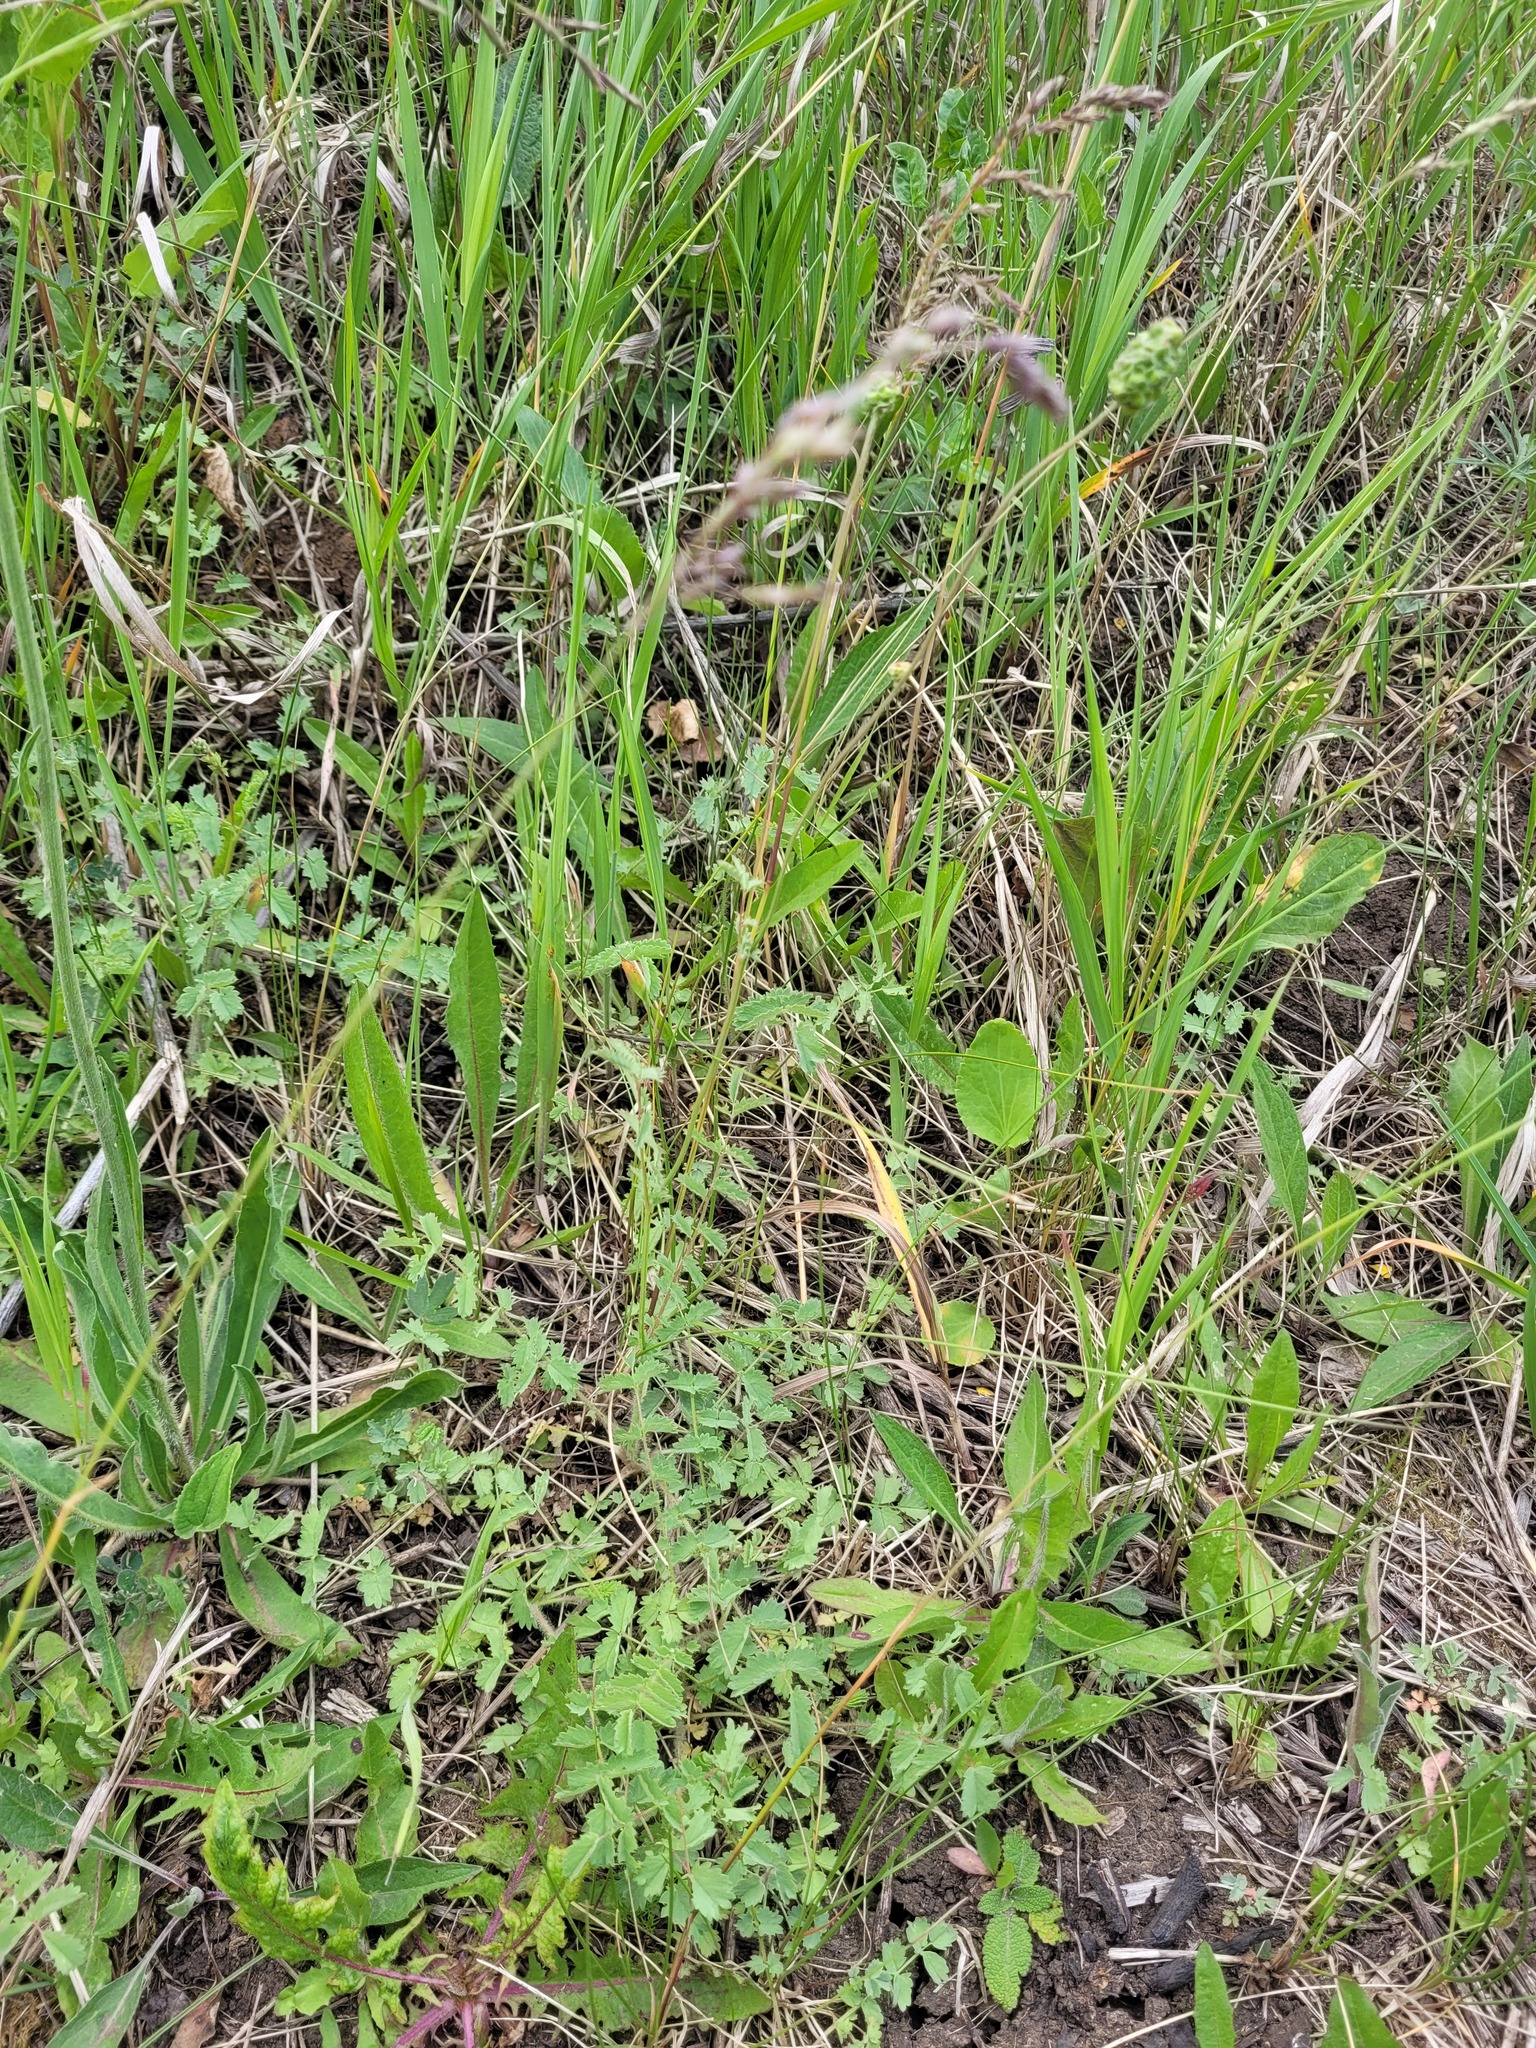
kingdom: Plantae
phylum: Tracheophyta
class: Magnoliopsida
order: Rosales
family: Rosaceae
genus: Poterium
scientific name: Poterium sanguisorba
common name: Salad burnet
